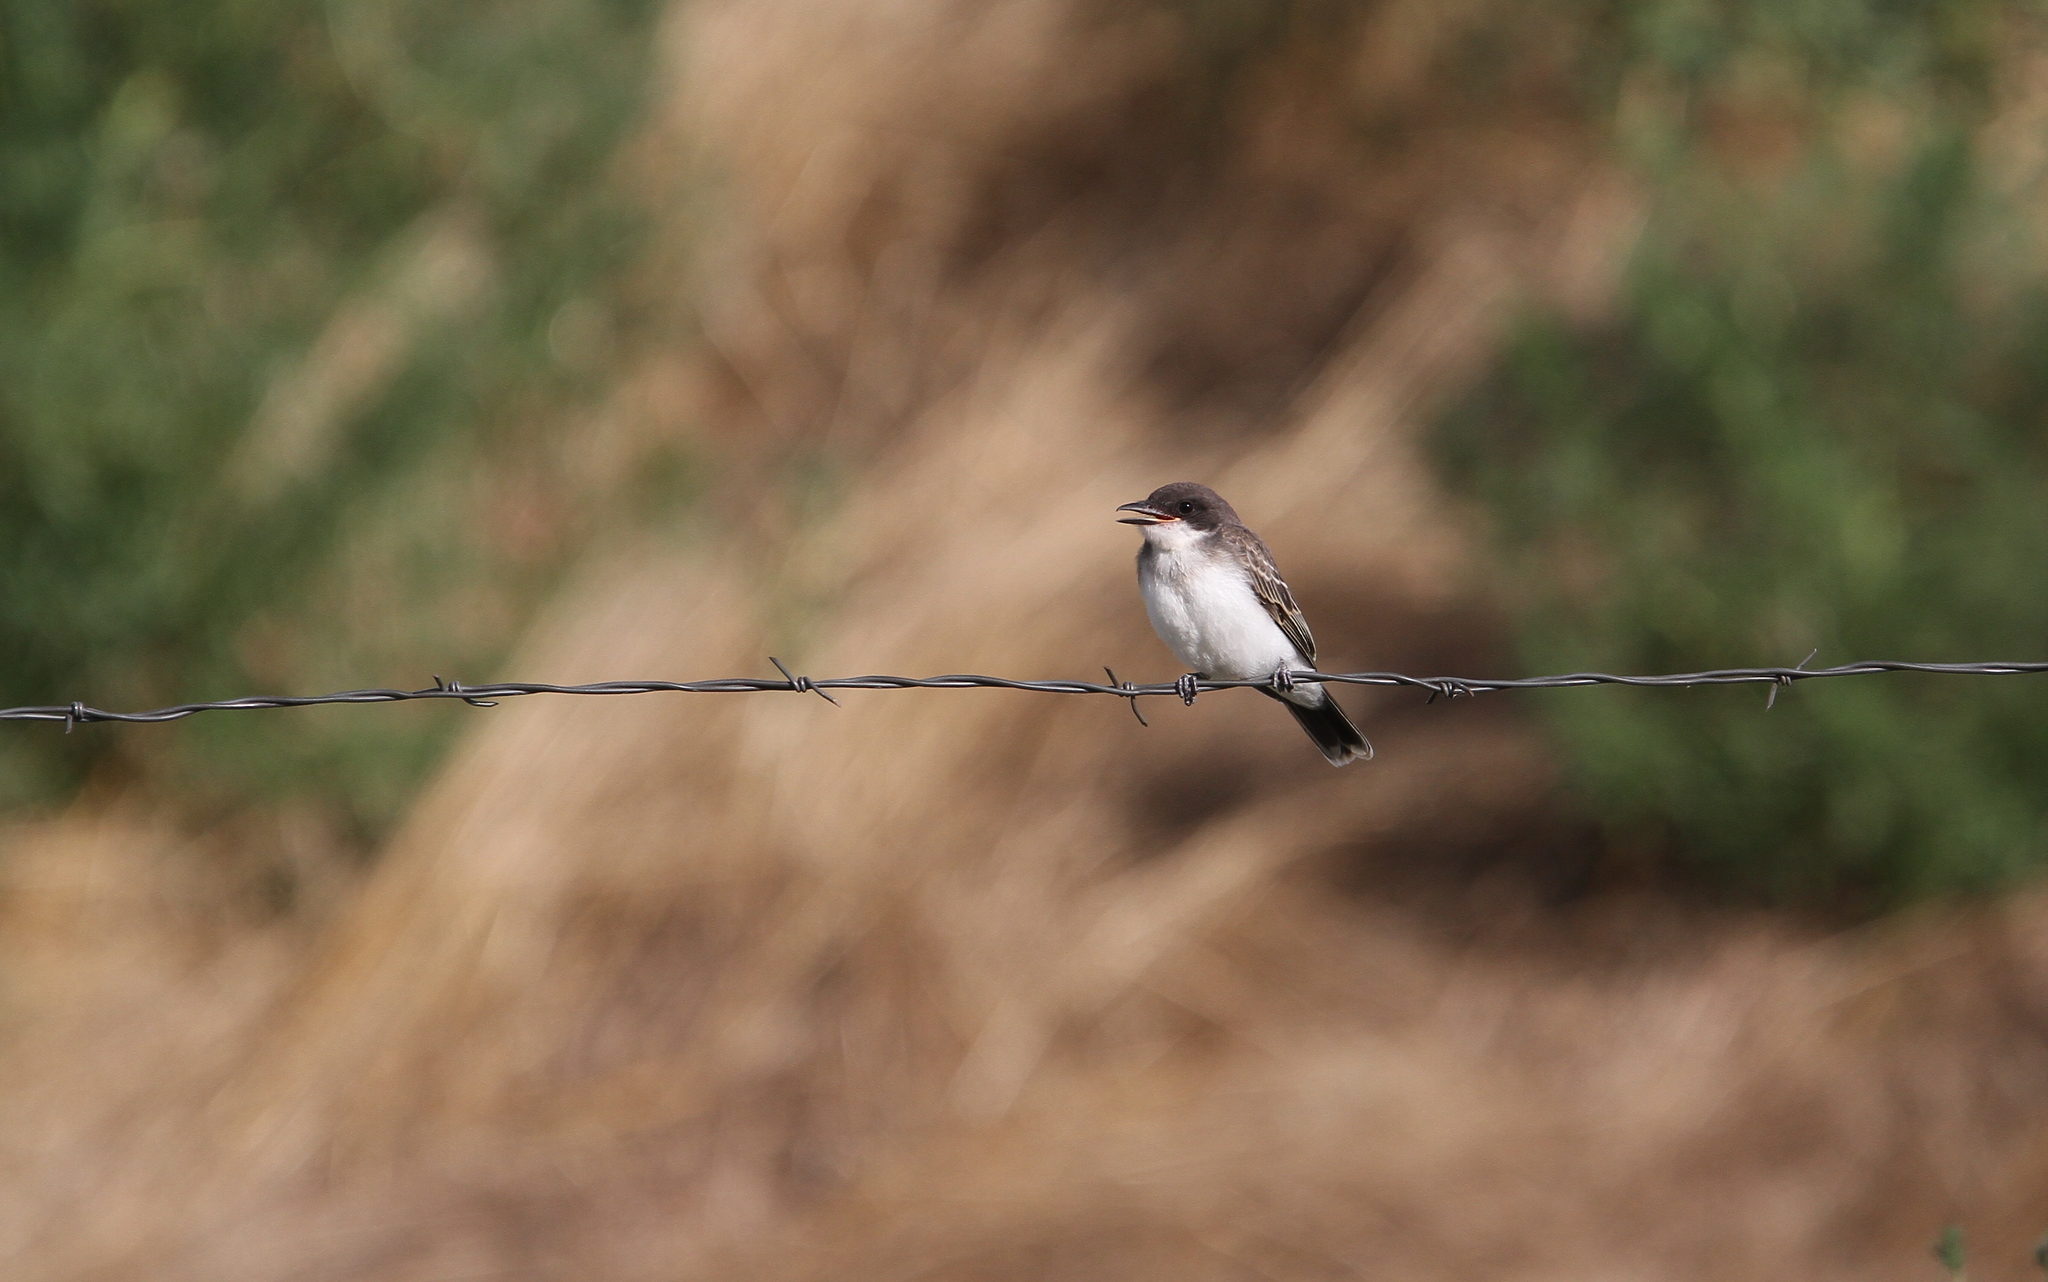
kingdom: Animalia
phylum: Chordata
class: Aves
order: Passeriformes
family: Tyrannidae
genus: Tyrannus
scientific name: Tyrannus tyrannus
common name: Eastern kingbird
